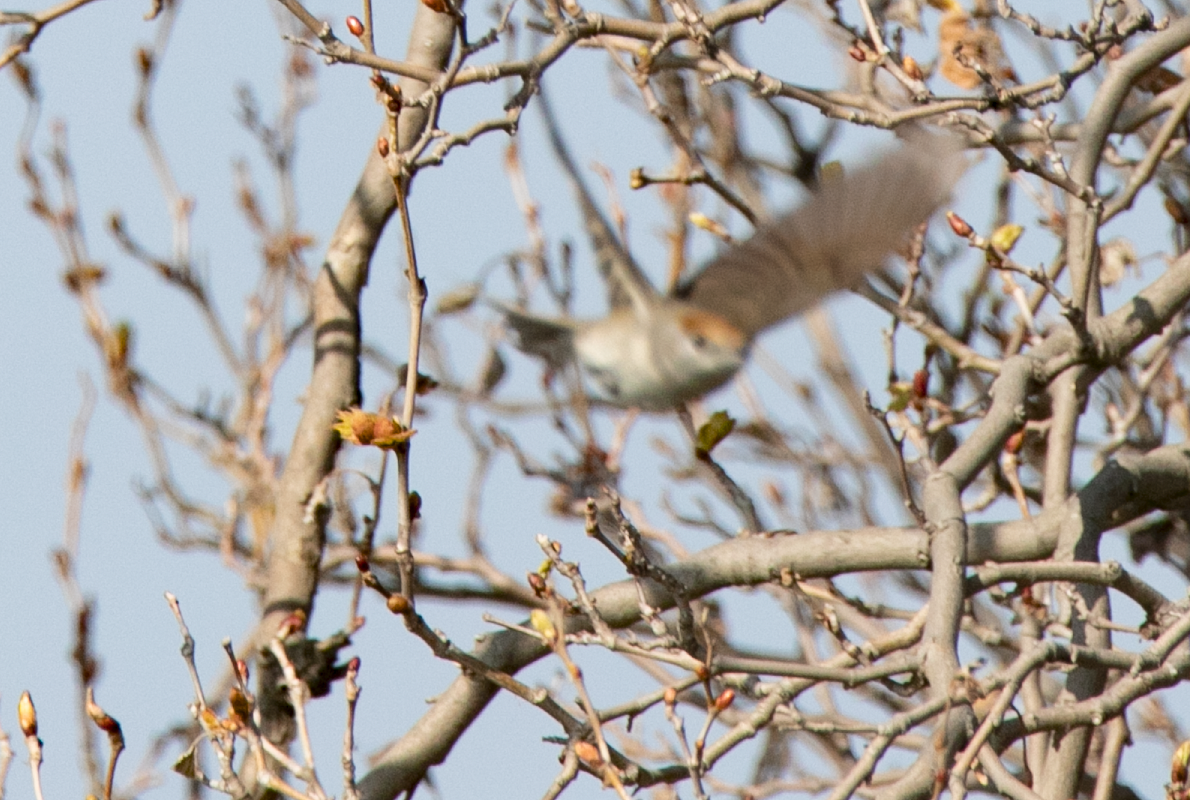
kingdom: Animalia
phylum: Chordata
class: Aves
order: Passeriformes
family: Sylviidae
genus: Sylvia
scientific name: Sylvia atricapilla
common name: Eurasian blackcap
